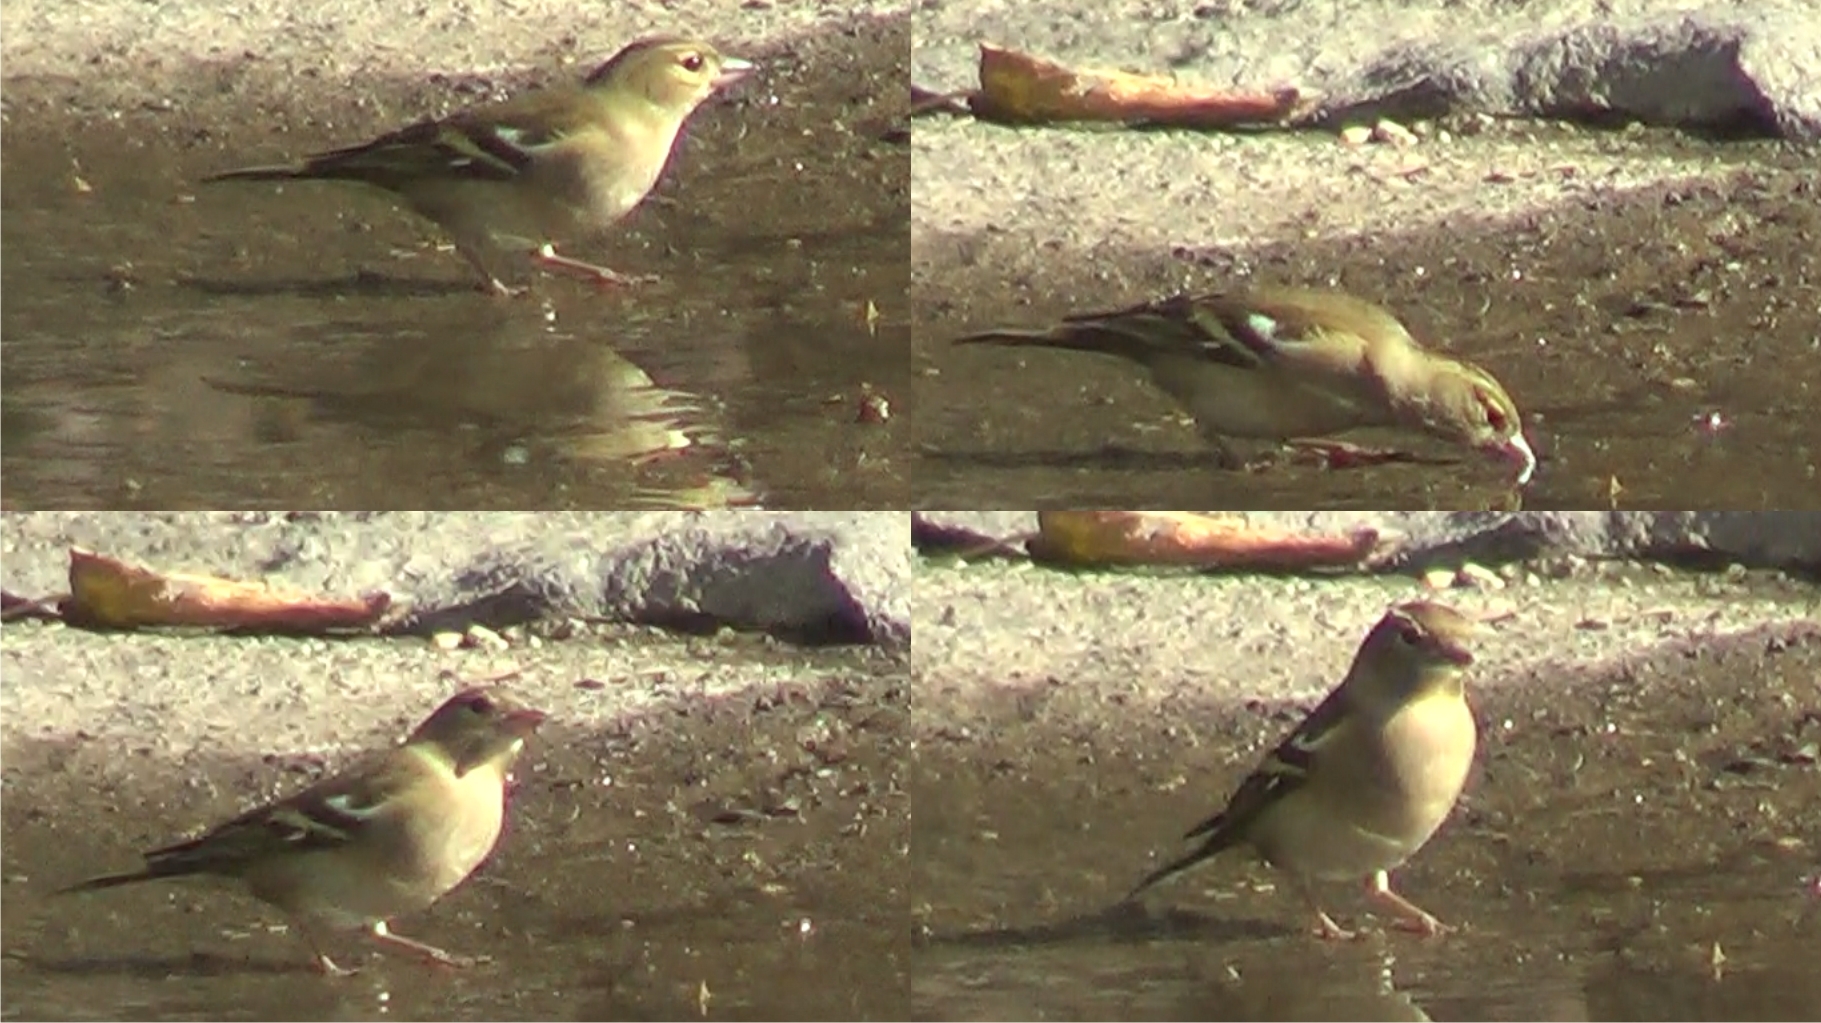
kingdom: Animalia
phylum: Chordata
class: Aves
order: Passeriformes
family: Fringillidae
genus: Fringilla
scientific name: Fringilla coelebs
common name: Common chaffinch
